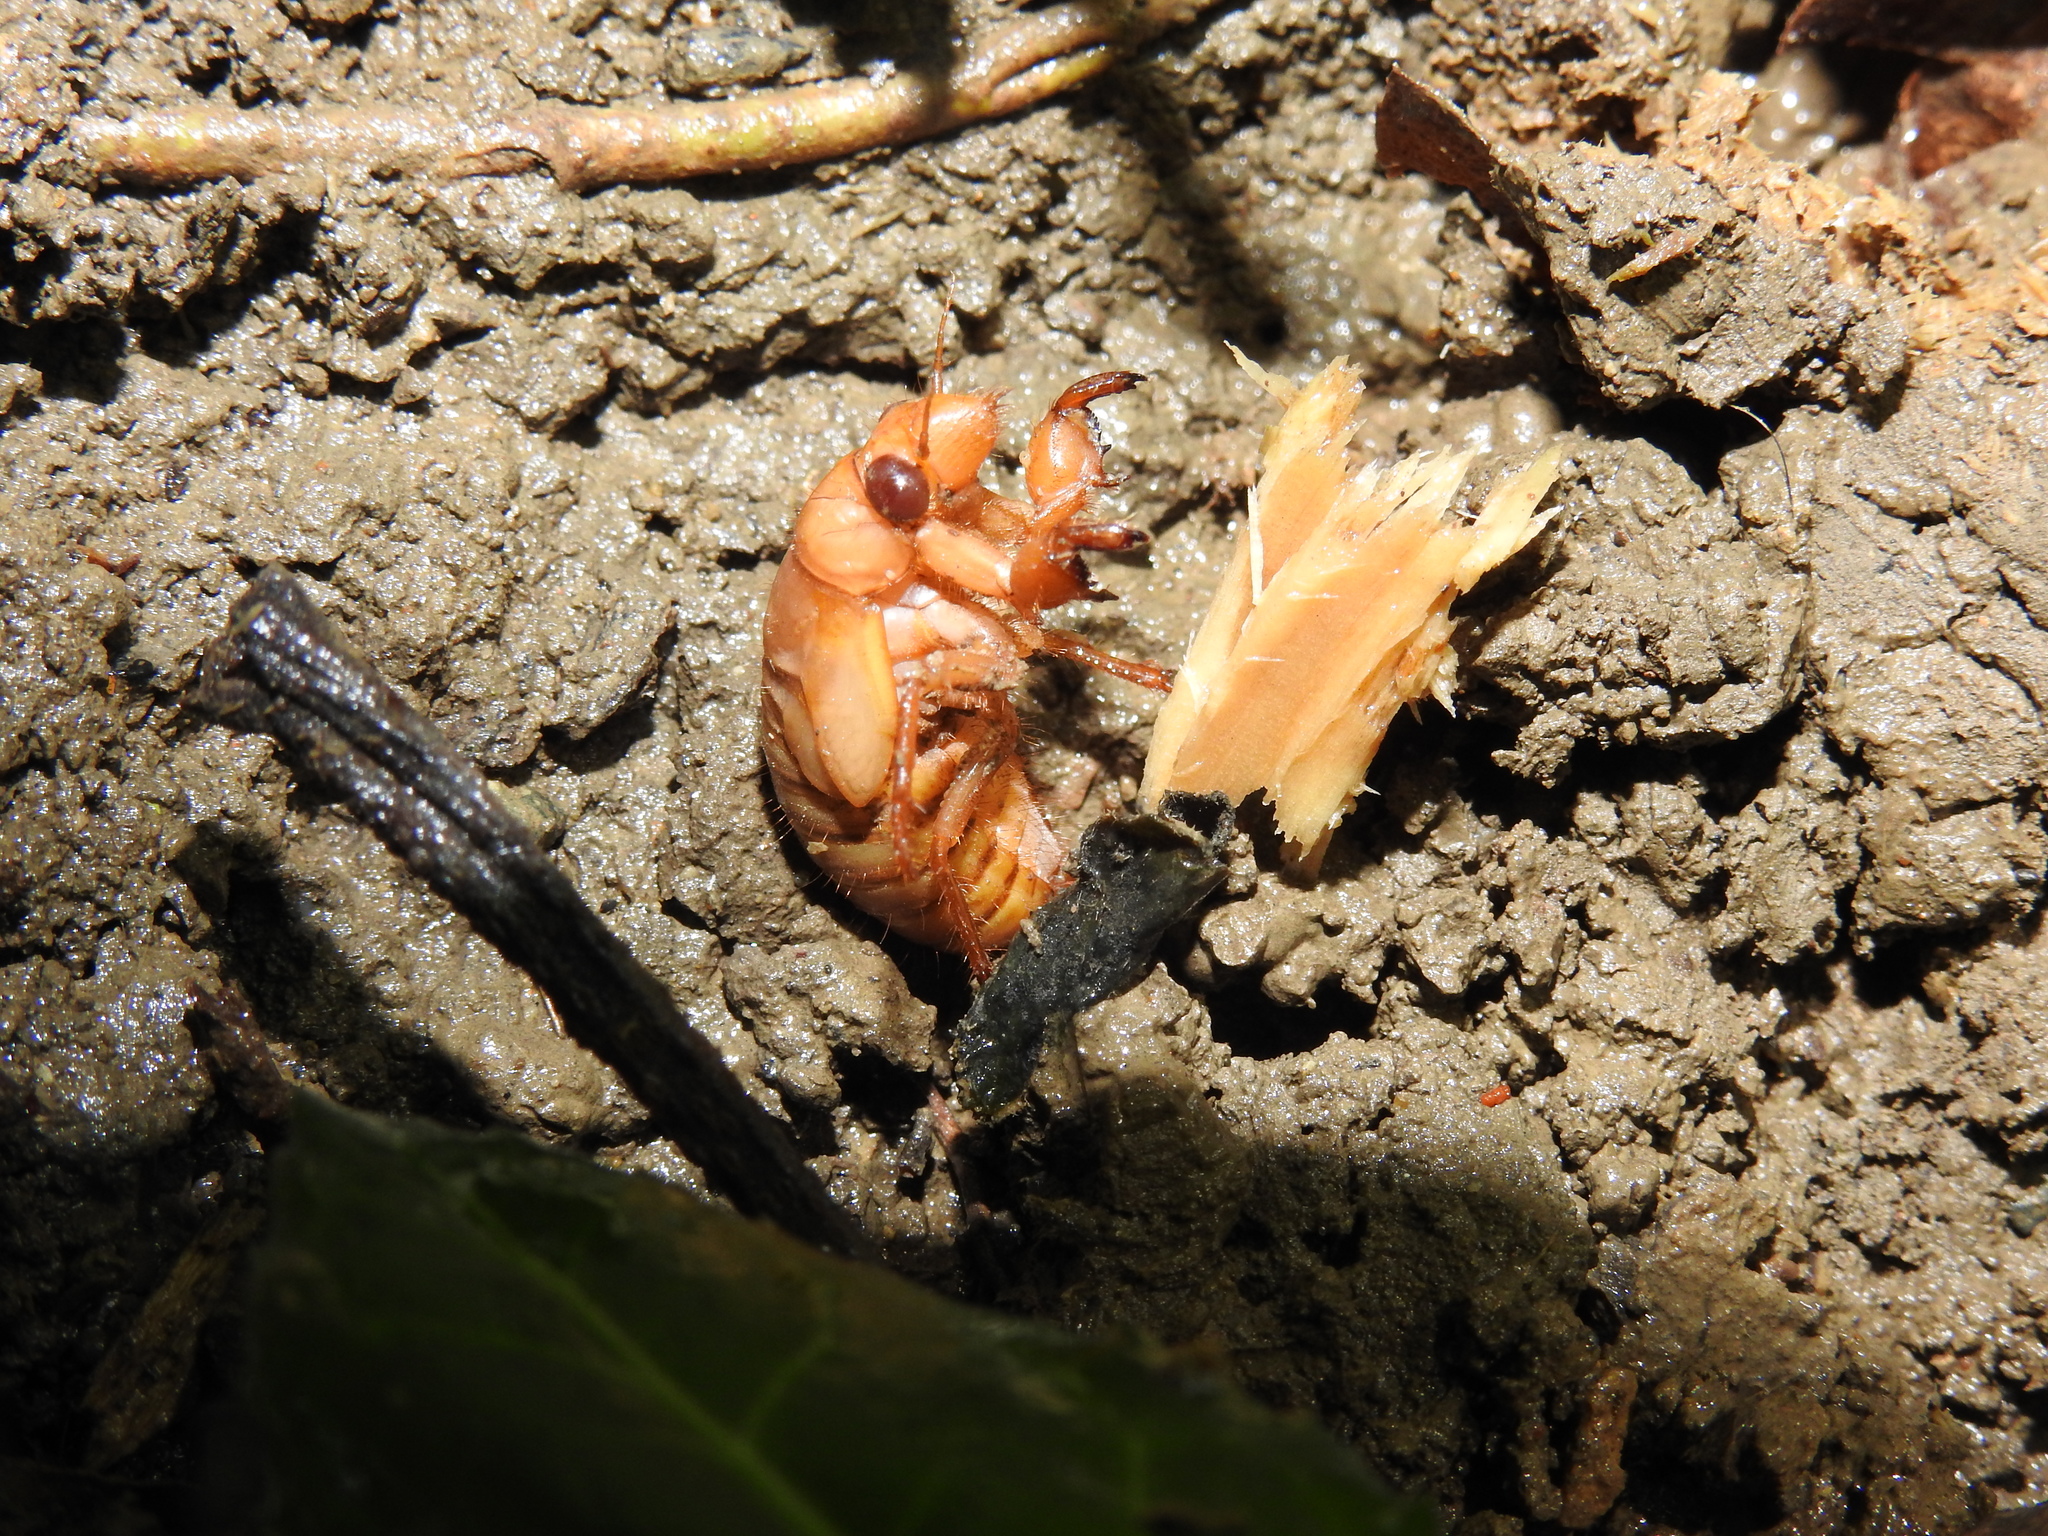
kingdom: Animalia
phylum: Arthropoda
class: Insecta
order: Hemiptera
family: Cicadidae
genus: Magicicada
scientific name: Magicicada
